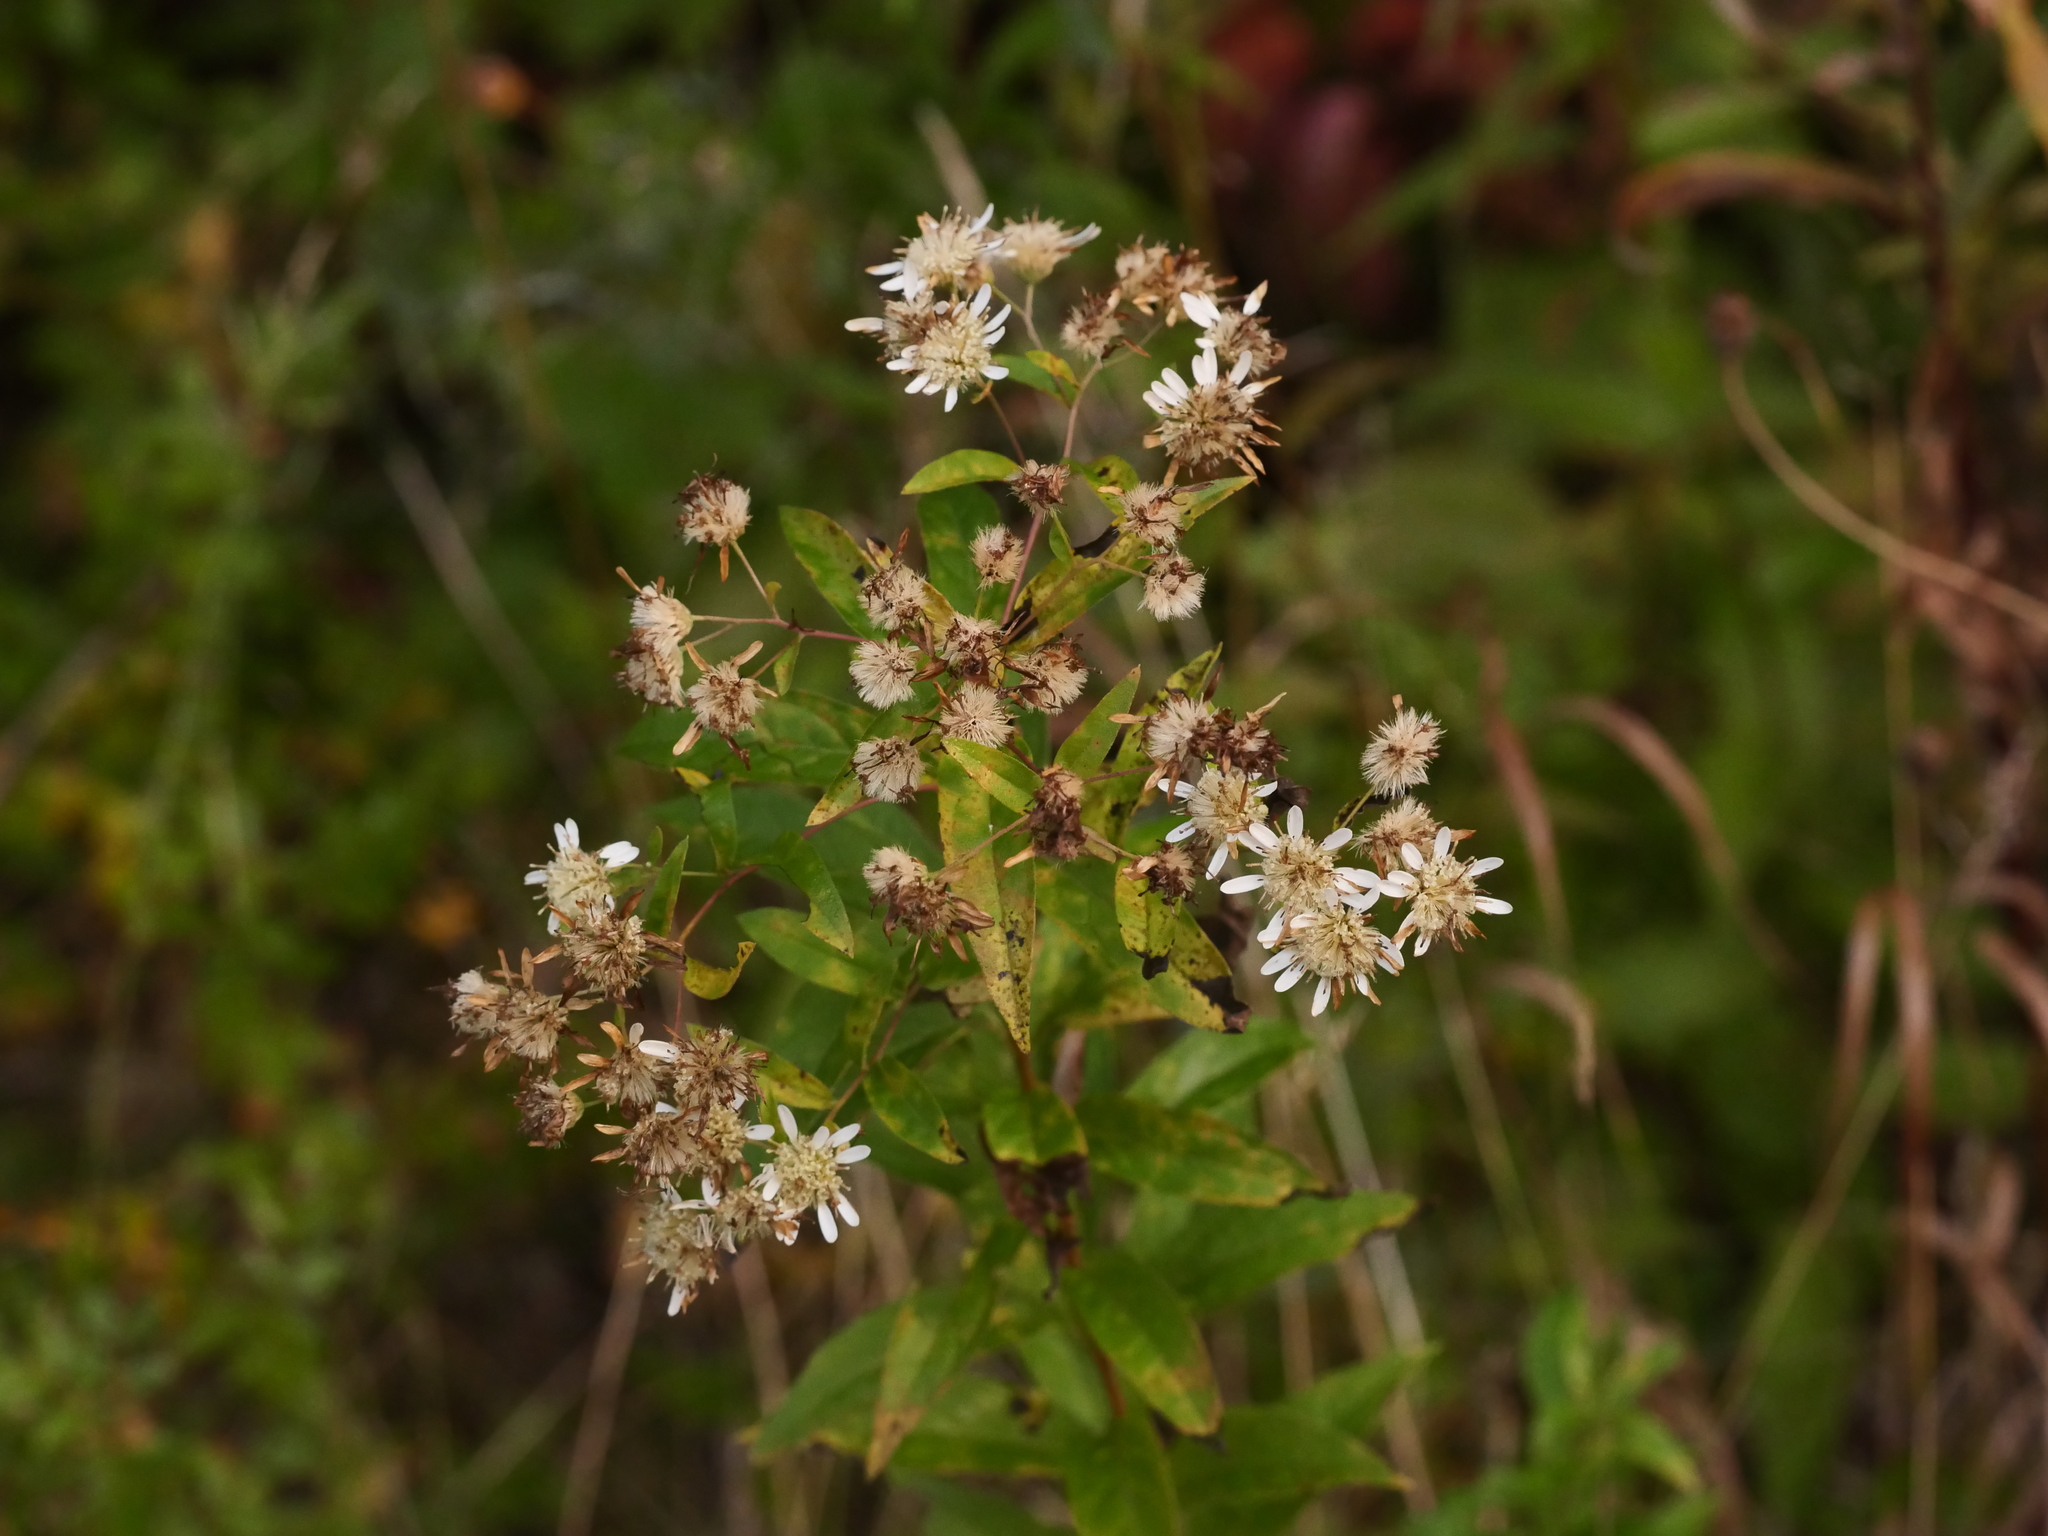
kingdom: Plantae
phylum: Tracheophyta
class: Magnoliopsida
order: Asterales
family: Asteraceae
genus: Doellingeria
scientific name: Doellingeria umbellata
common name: Flat-top white aster
